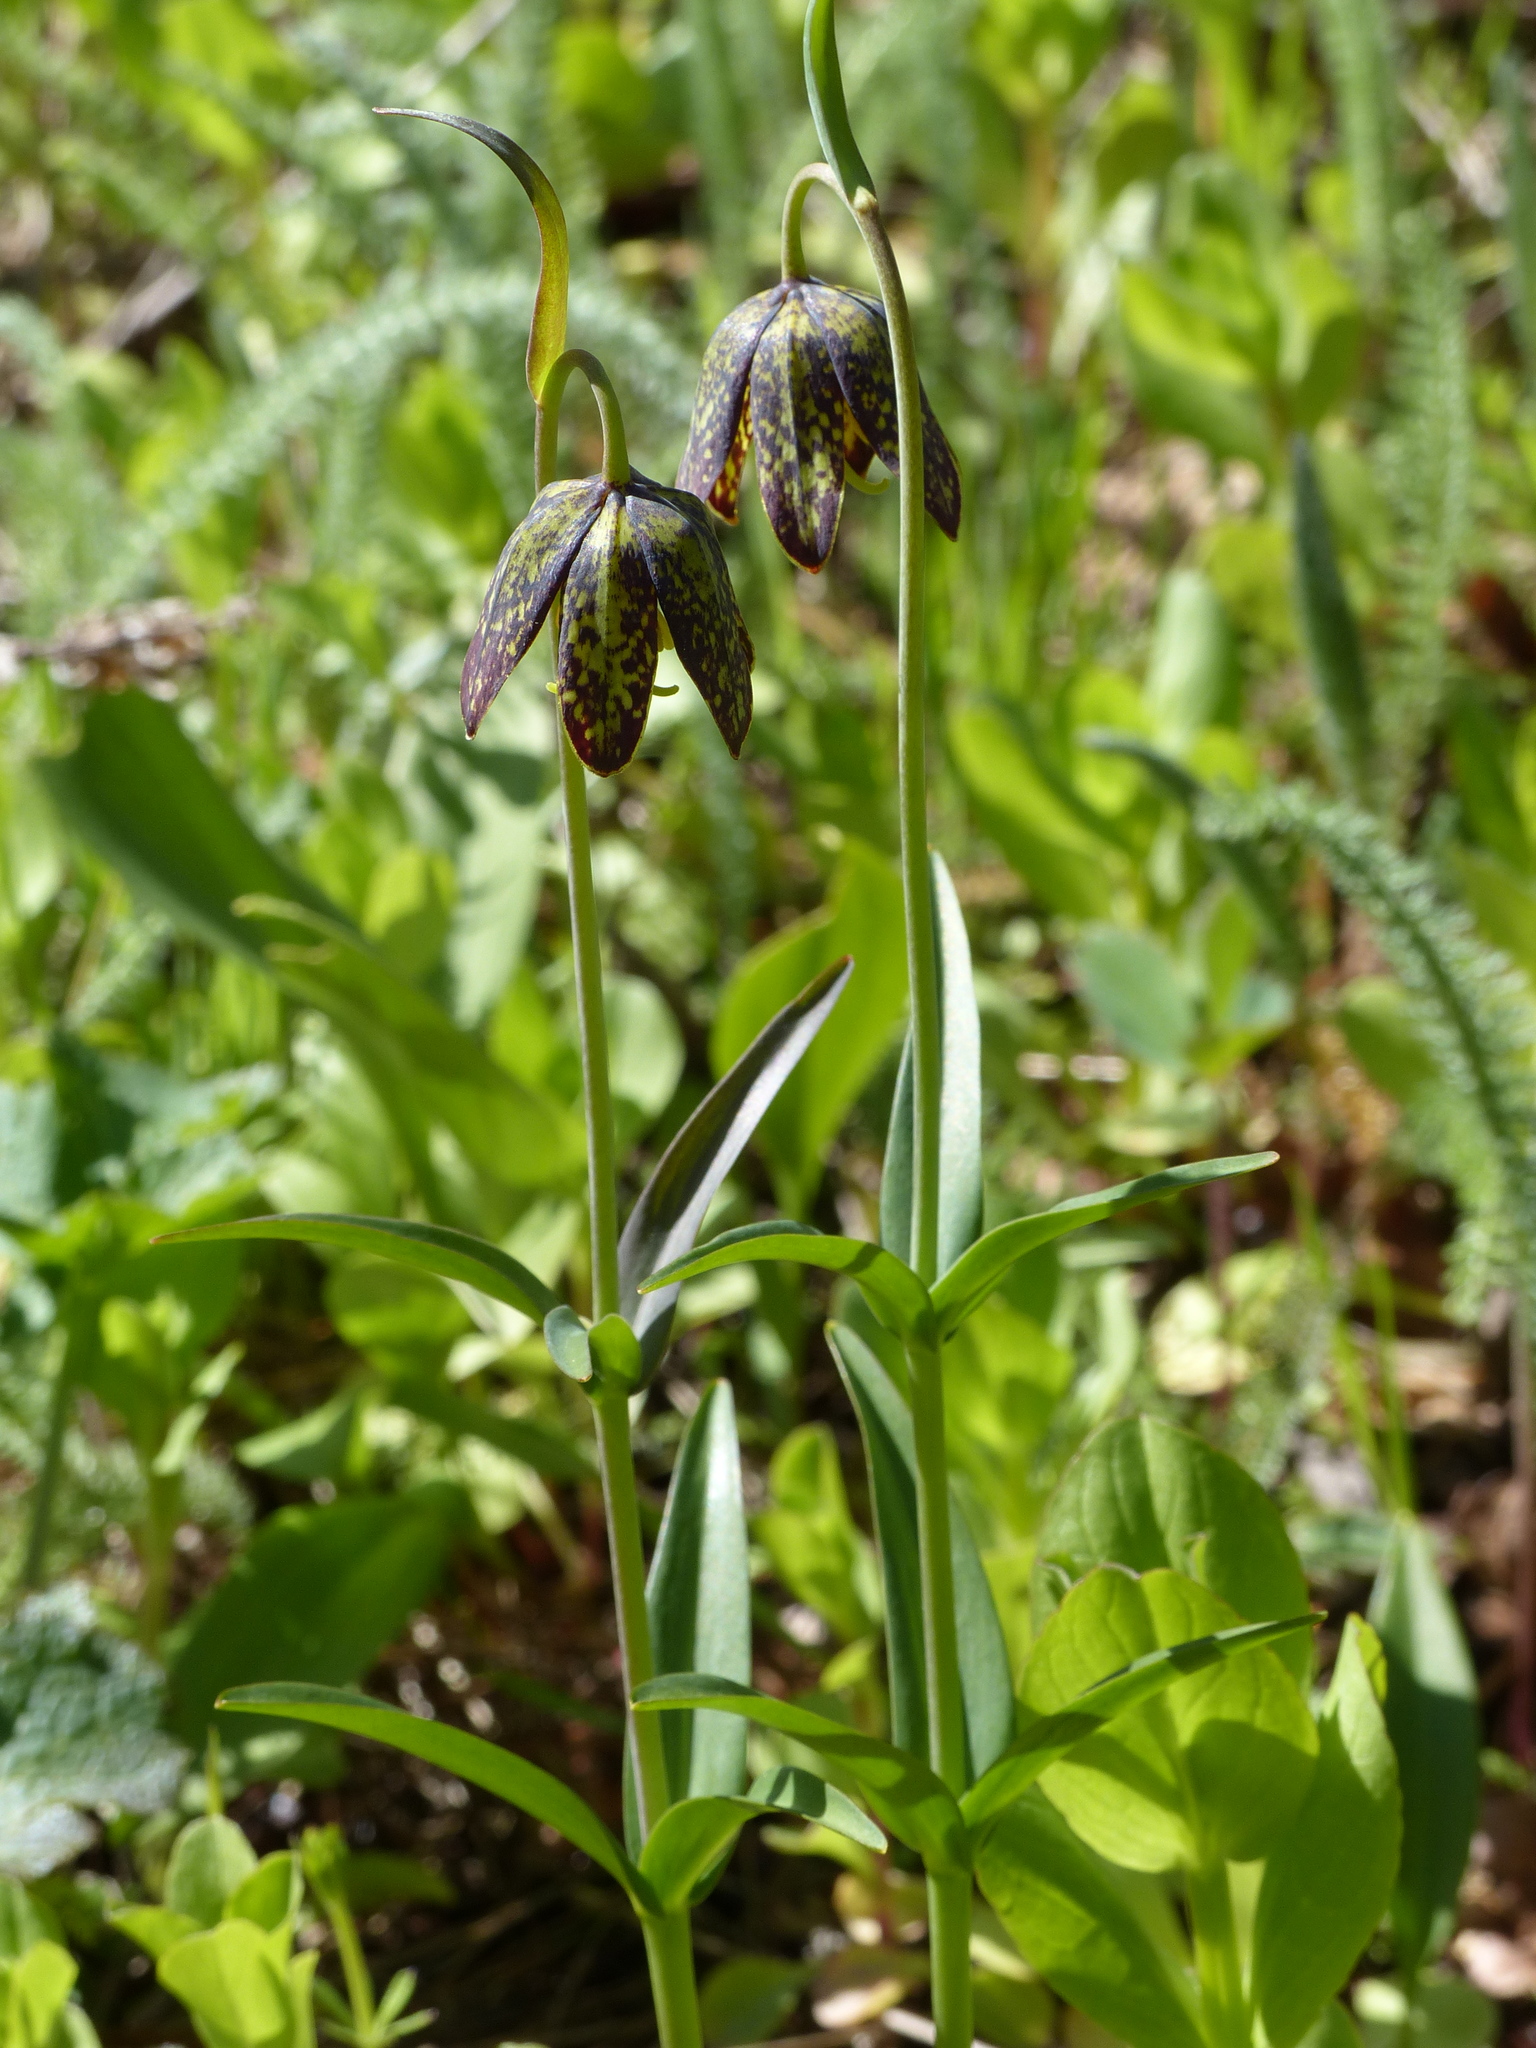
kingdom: Plantae
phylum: Tracheophyta
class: Liliopsida
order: Liliales
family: Liliaceae
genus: Fritillaria
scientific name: Fritillaria affinis
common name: Ojai fritillary
